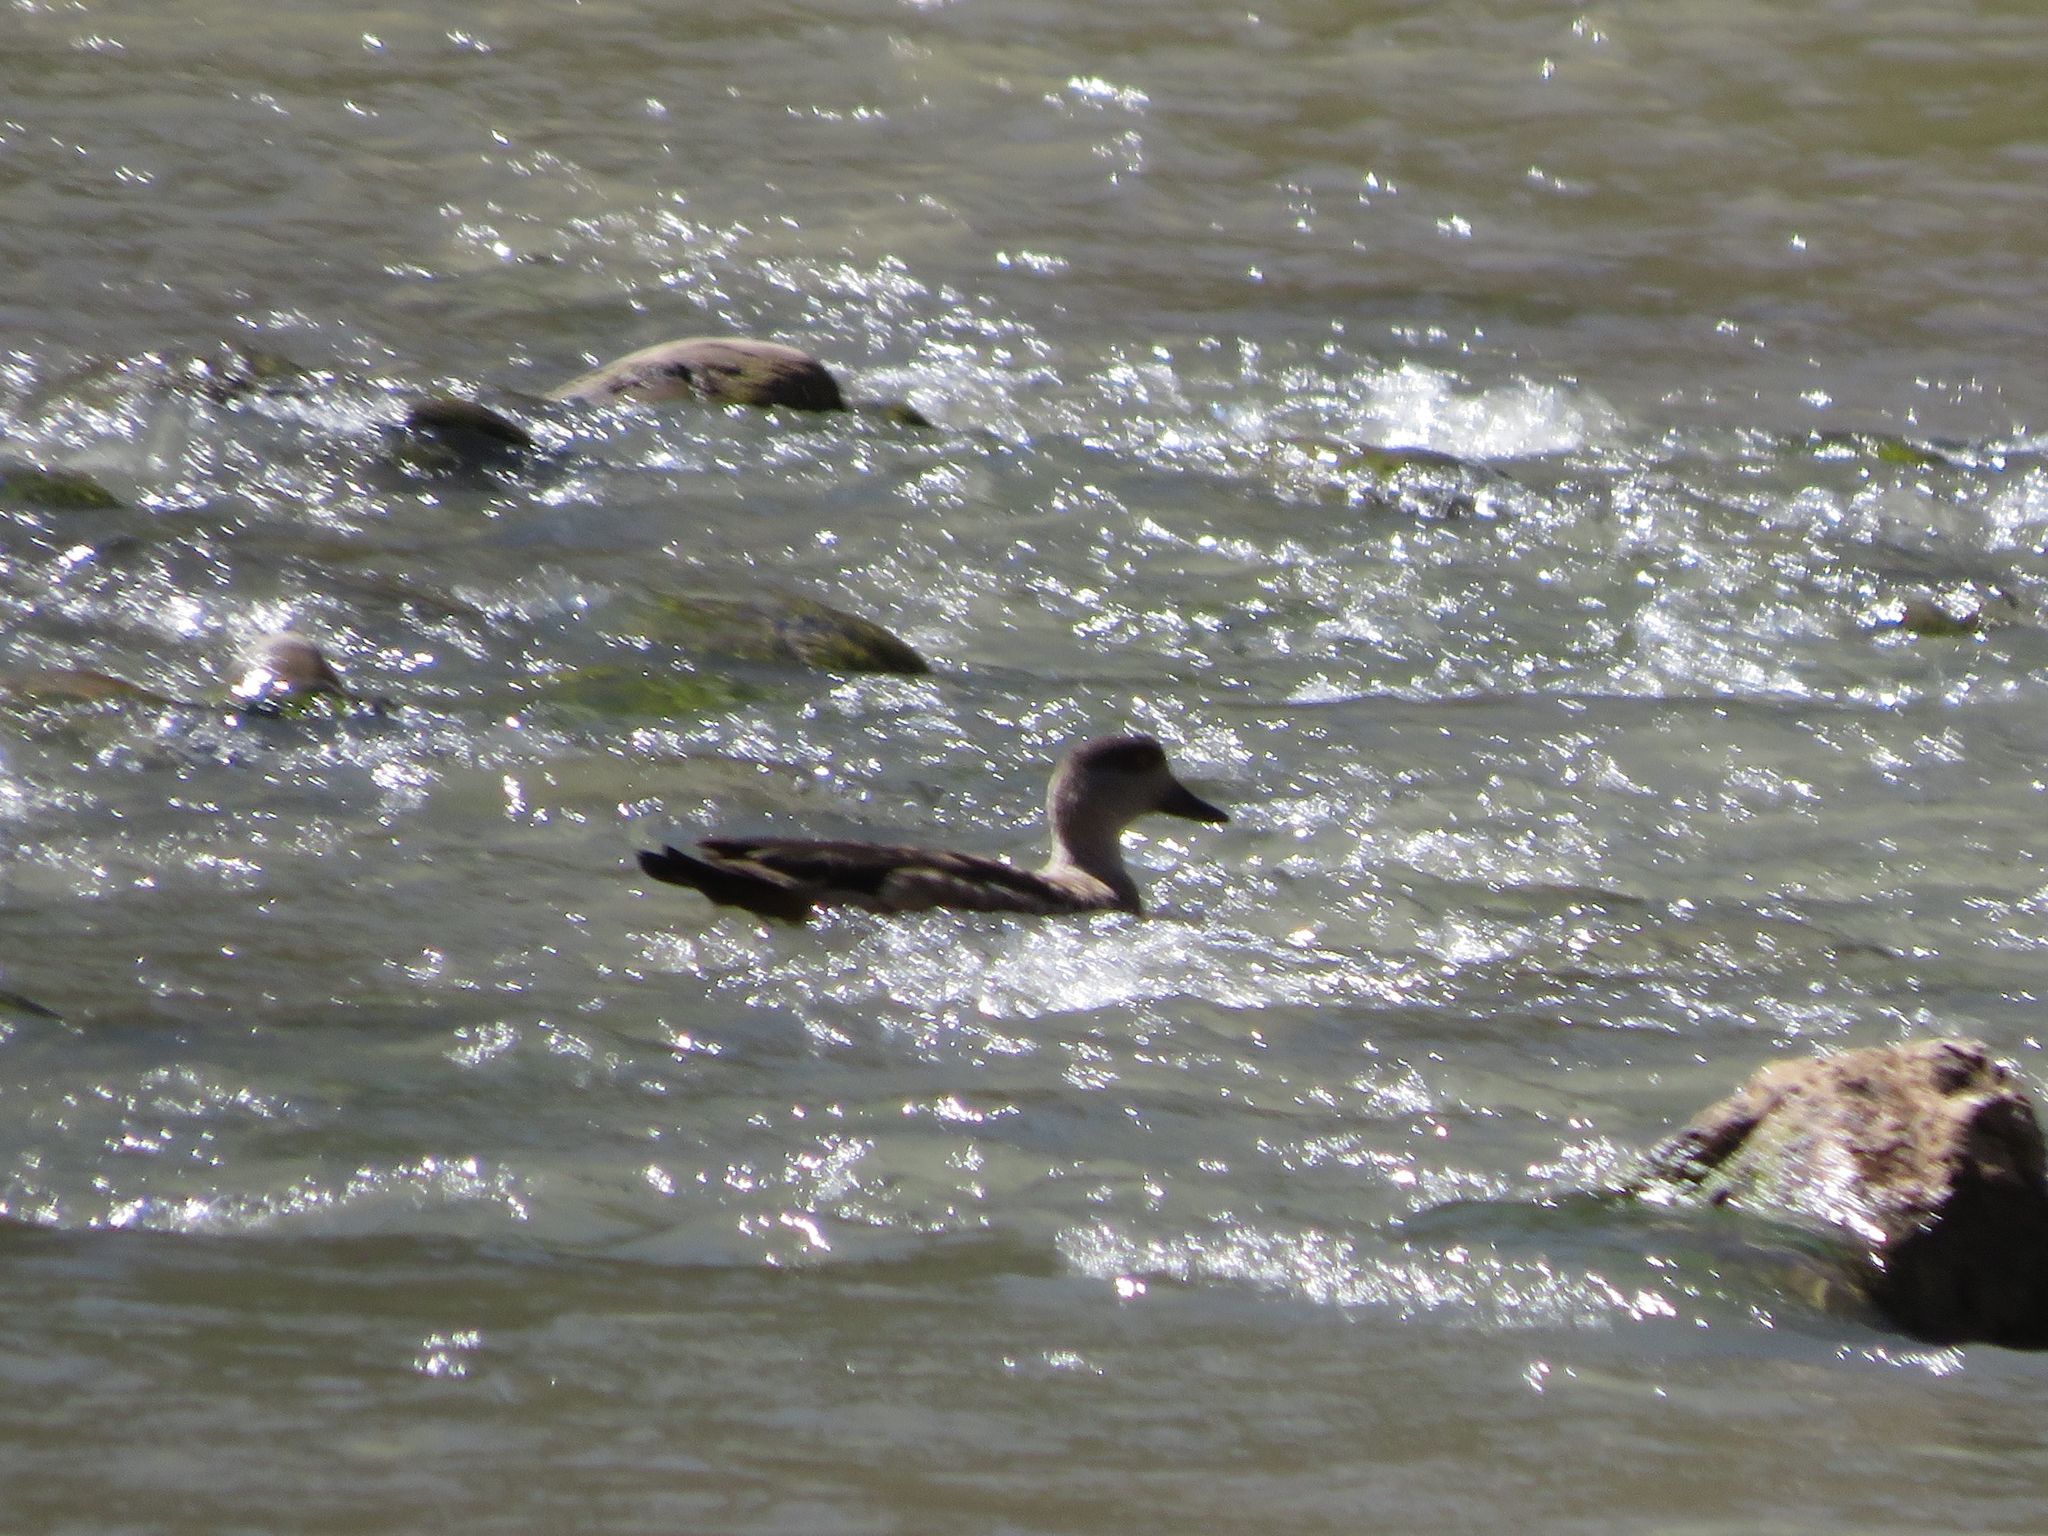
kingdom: Animalia
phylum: Chordata
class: Aves
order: Anseriformes
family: Anatidae
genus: Lophonetta
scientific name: Lophonetta specularioides
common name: Crested duck
